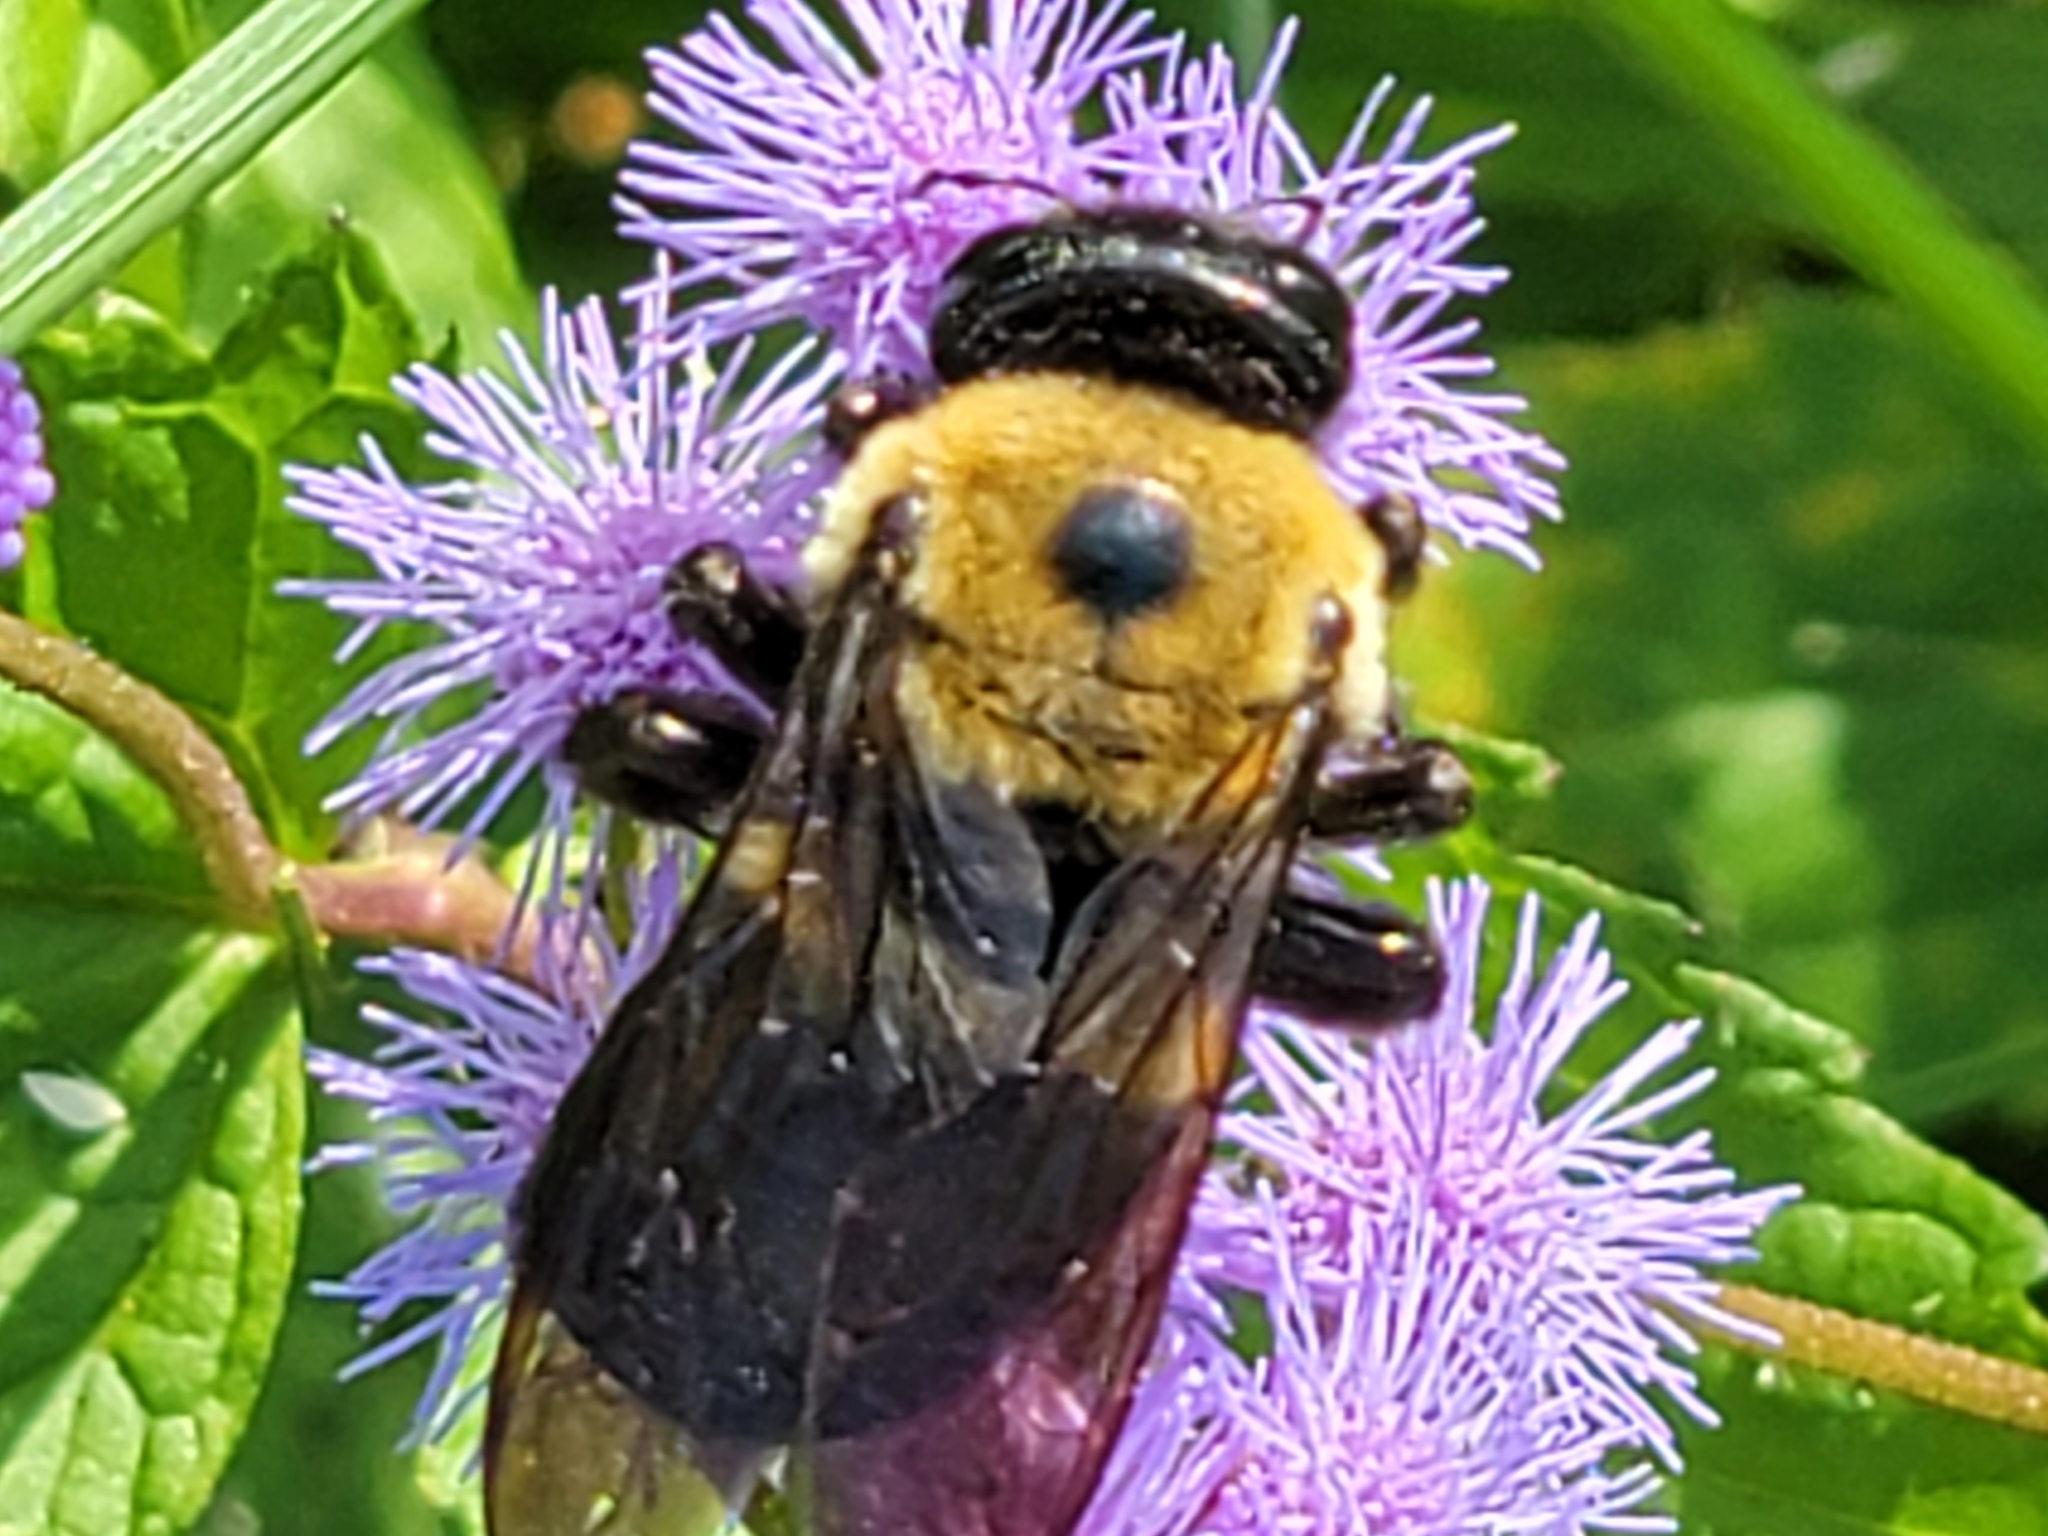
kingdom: Animalia
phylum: Arthropoda
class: Insecta
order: Hymenoptera
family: Apidae
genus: Xylocopa
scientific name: Xylocopa virginica
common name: Carpenter bee
